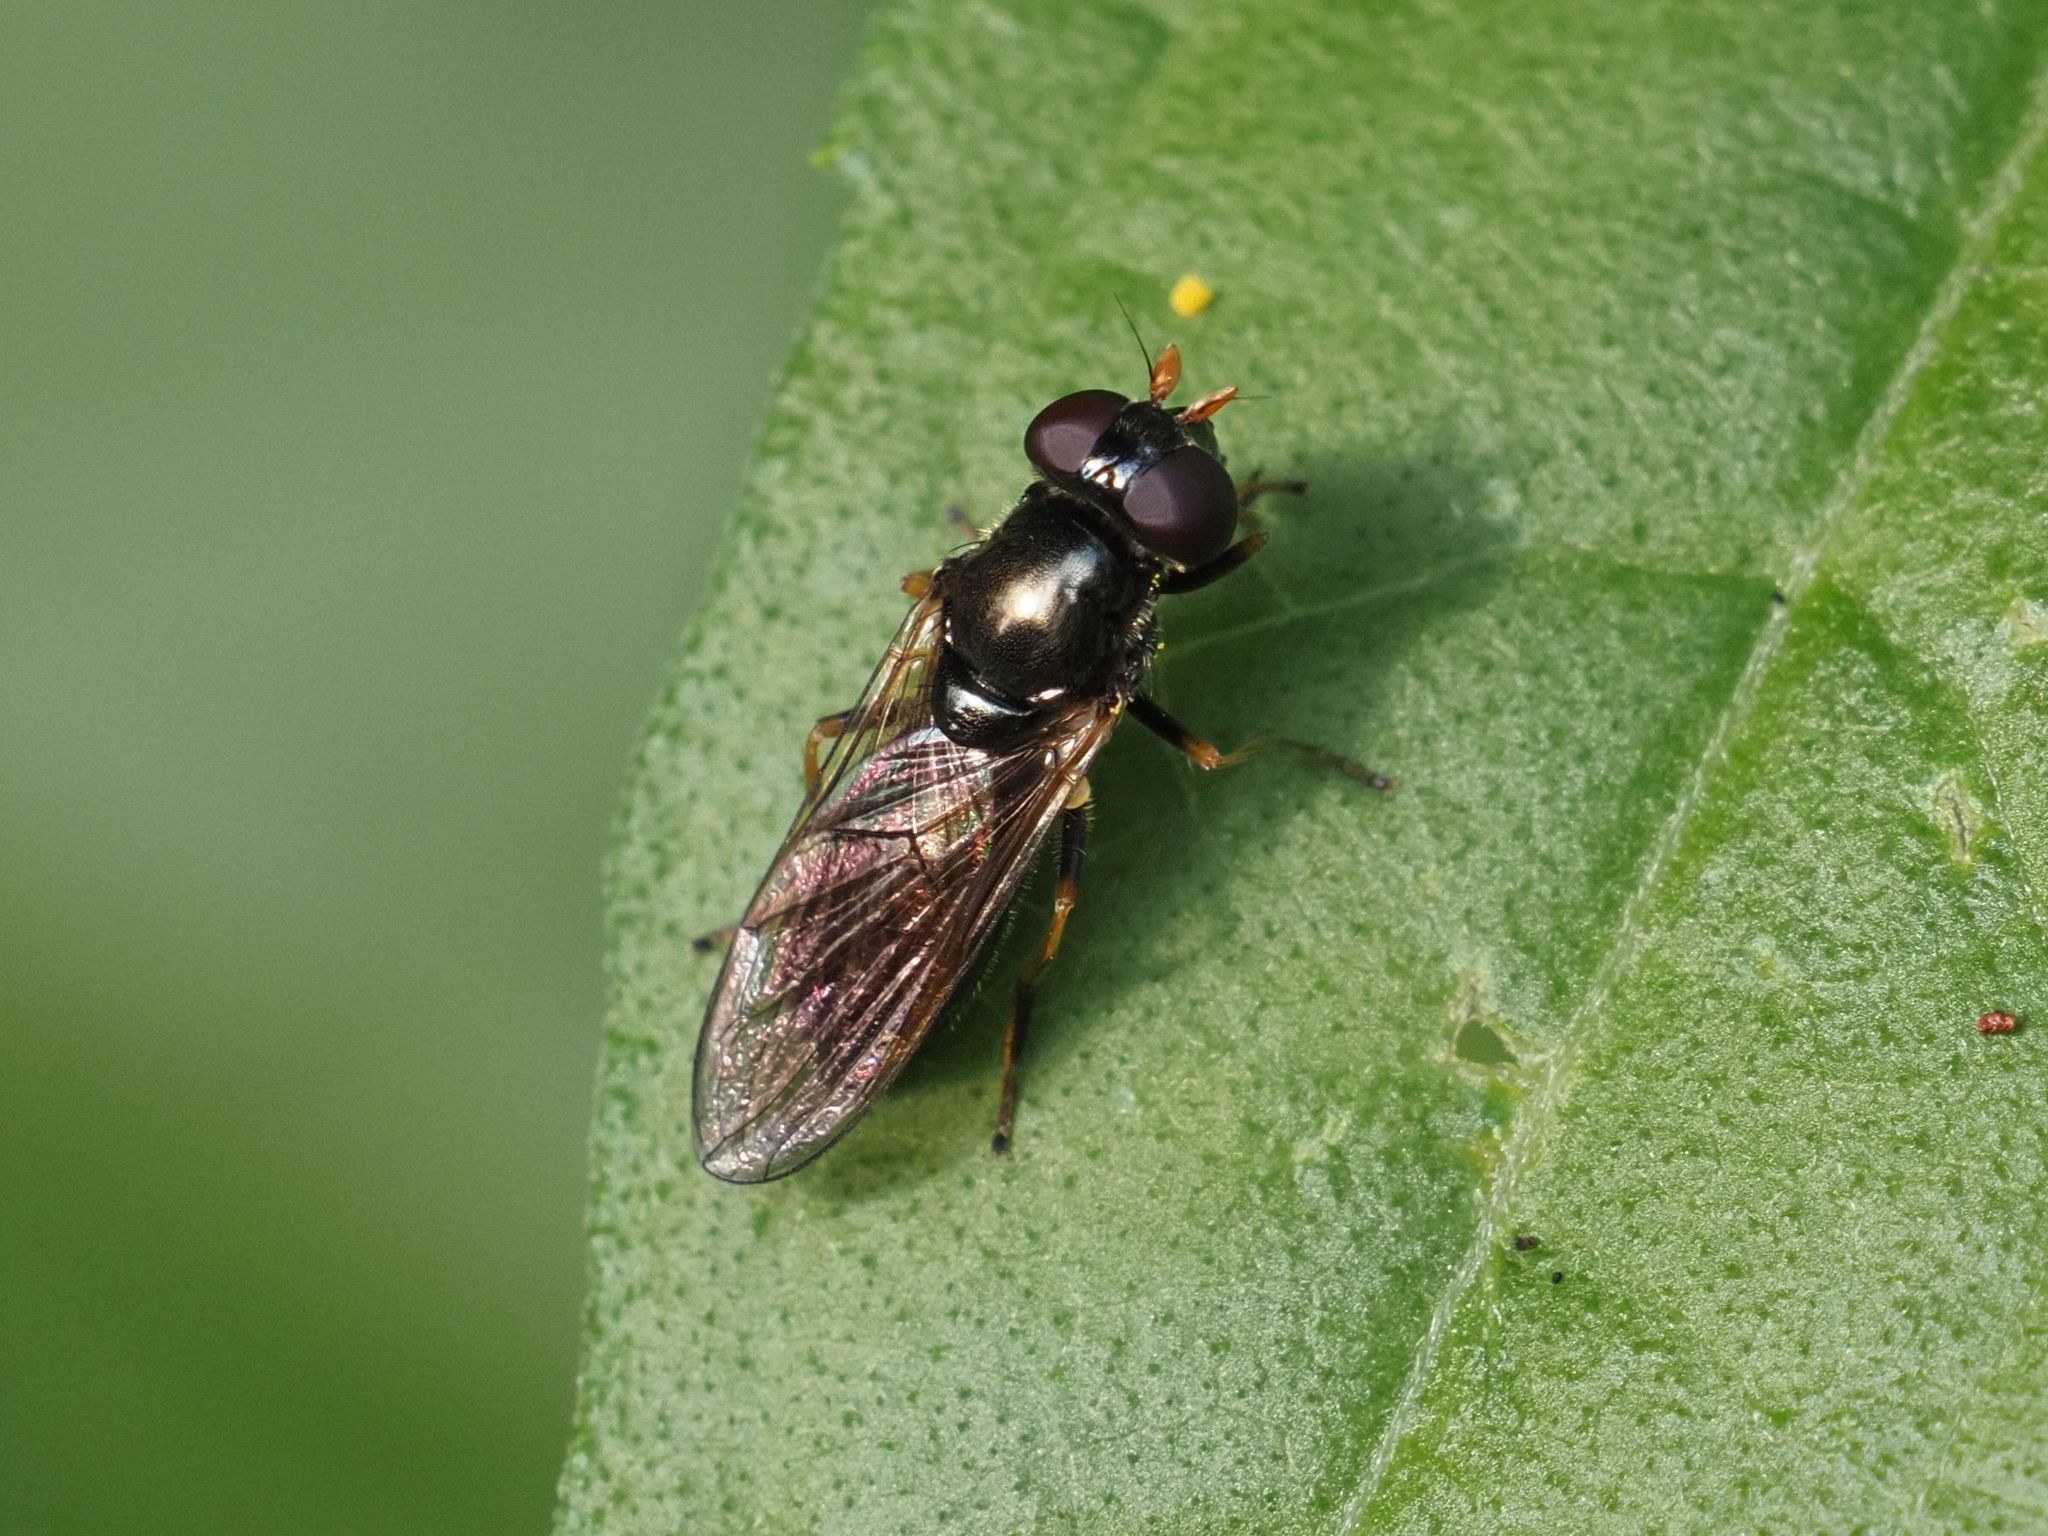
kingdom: Animalia
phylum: Arthropoda
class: Insecta
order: Diptera
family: Syrphidae
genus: Cheilosia
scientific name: Cheilosia pagana
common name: Hover fly
